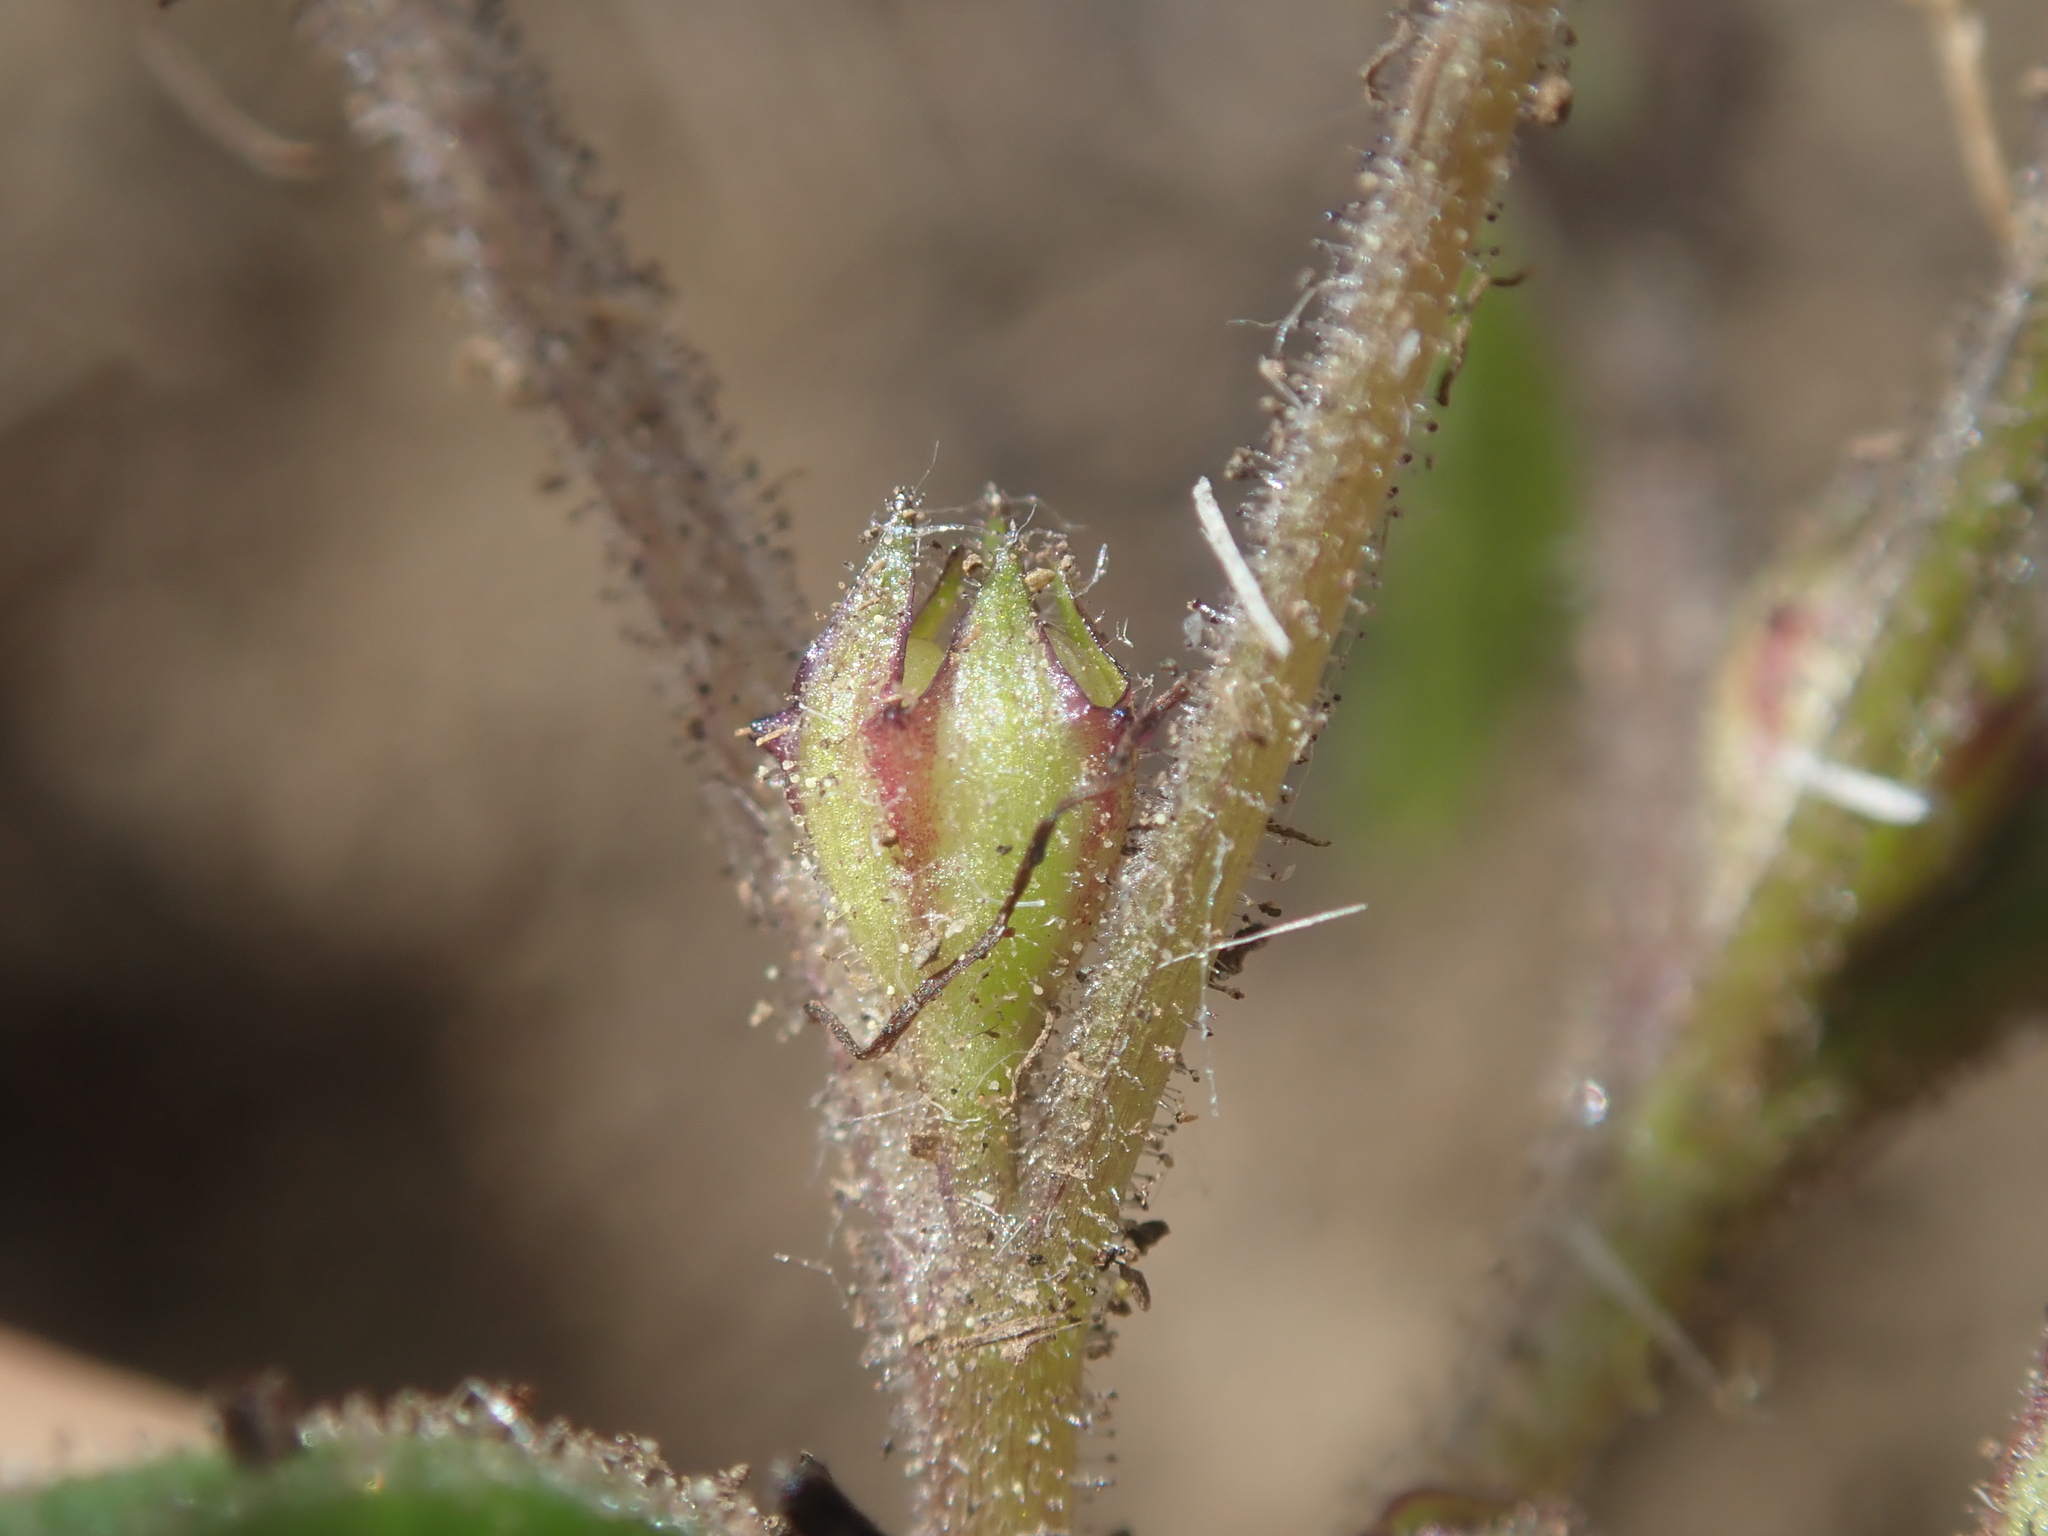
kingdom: Plantae
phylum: Tracheophyta
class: Magnoliopsida
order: Ericales
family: Polemoniaceae
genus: Collomia
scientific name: Collomia tenella
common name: Diffuse collomia
